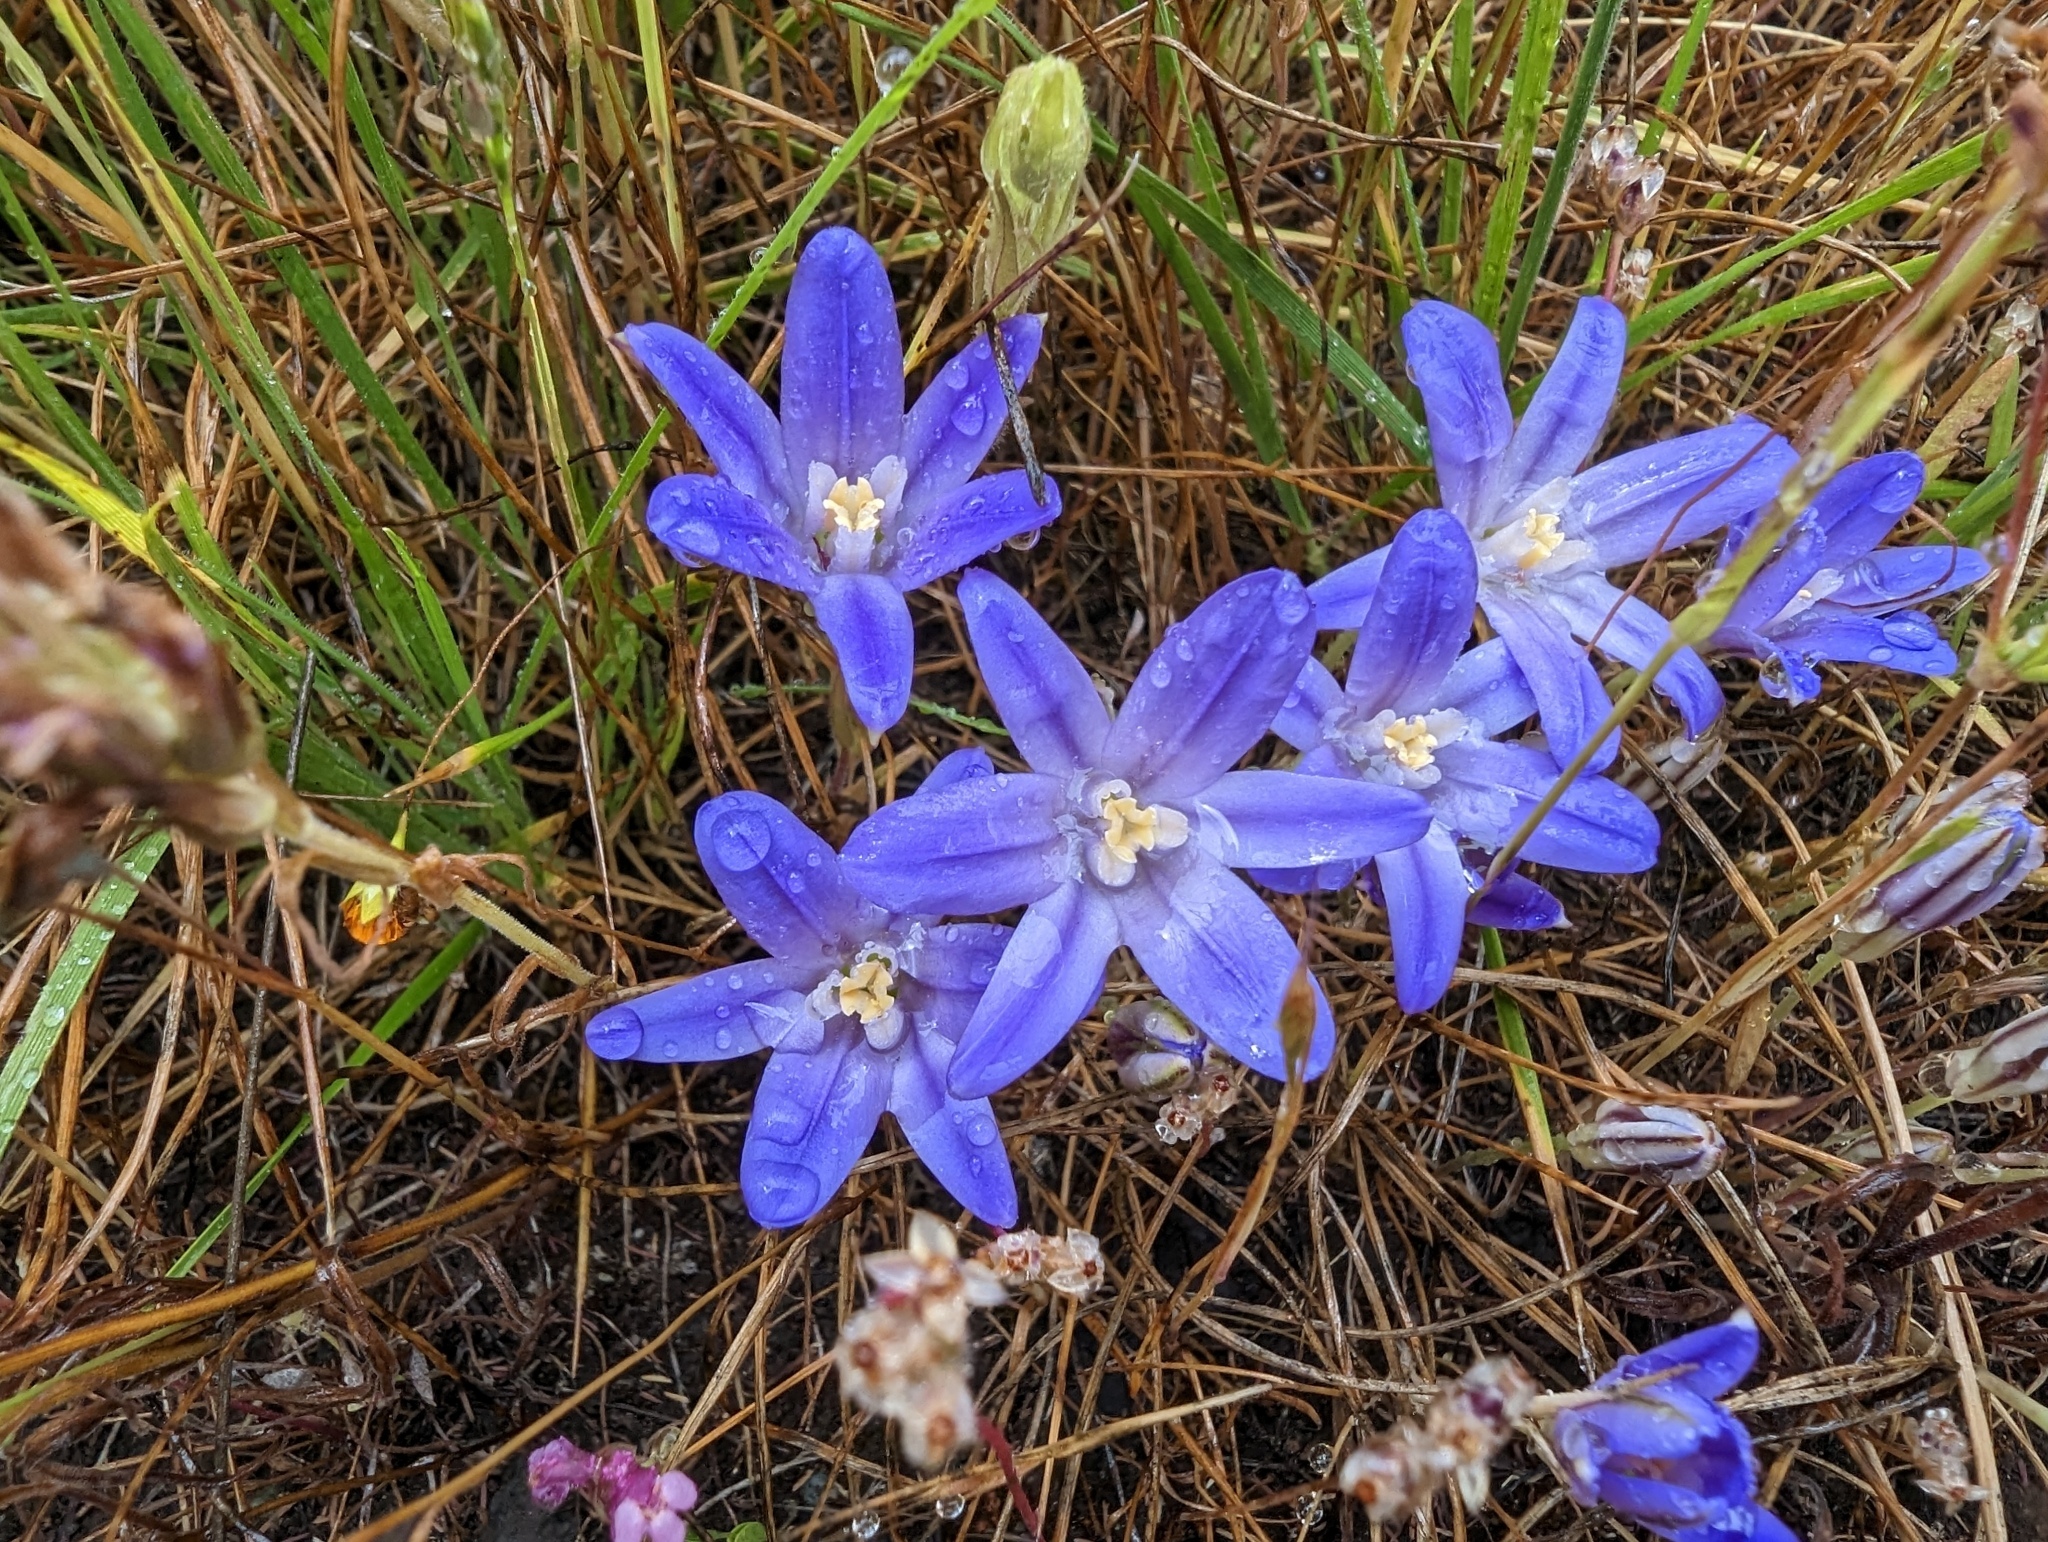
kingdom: Plantae
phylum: Tracheophyta
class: Liliopsida
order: Asparagales
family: Asparagaceae
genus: Brodiaea
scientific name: Brodiaea terrestris
